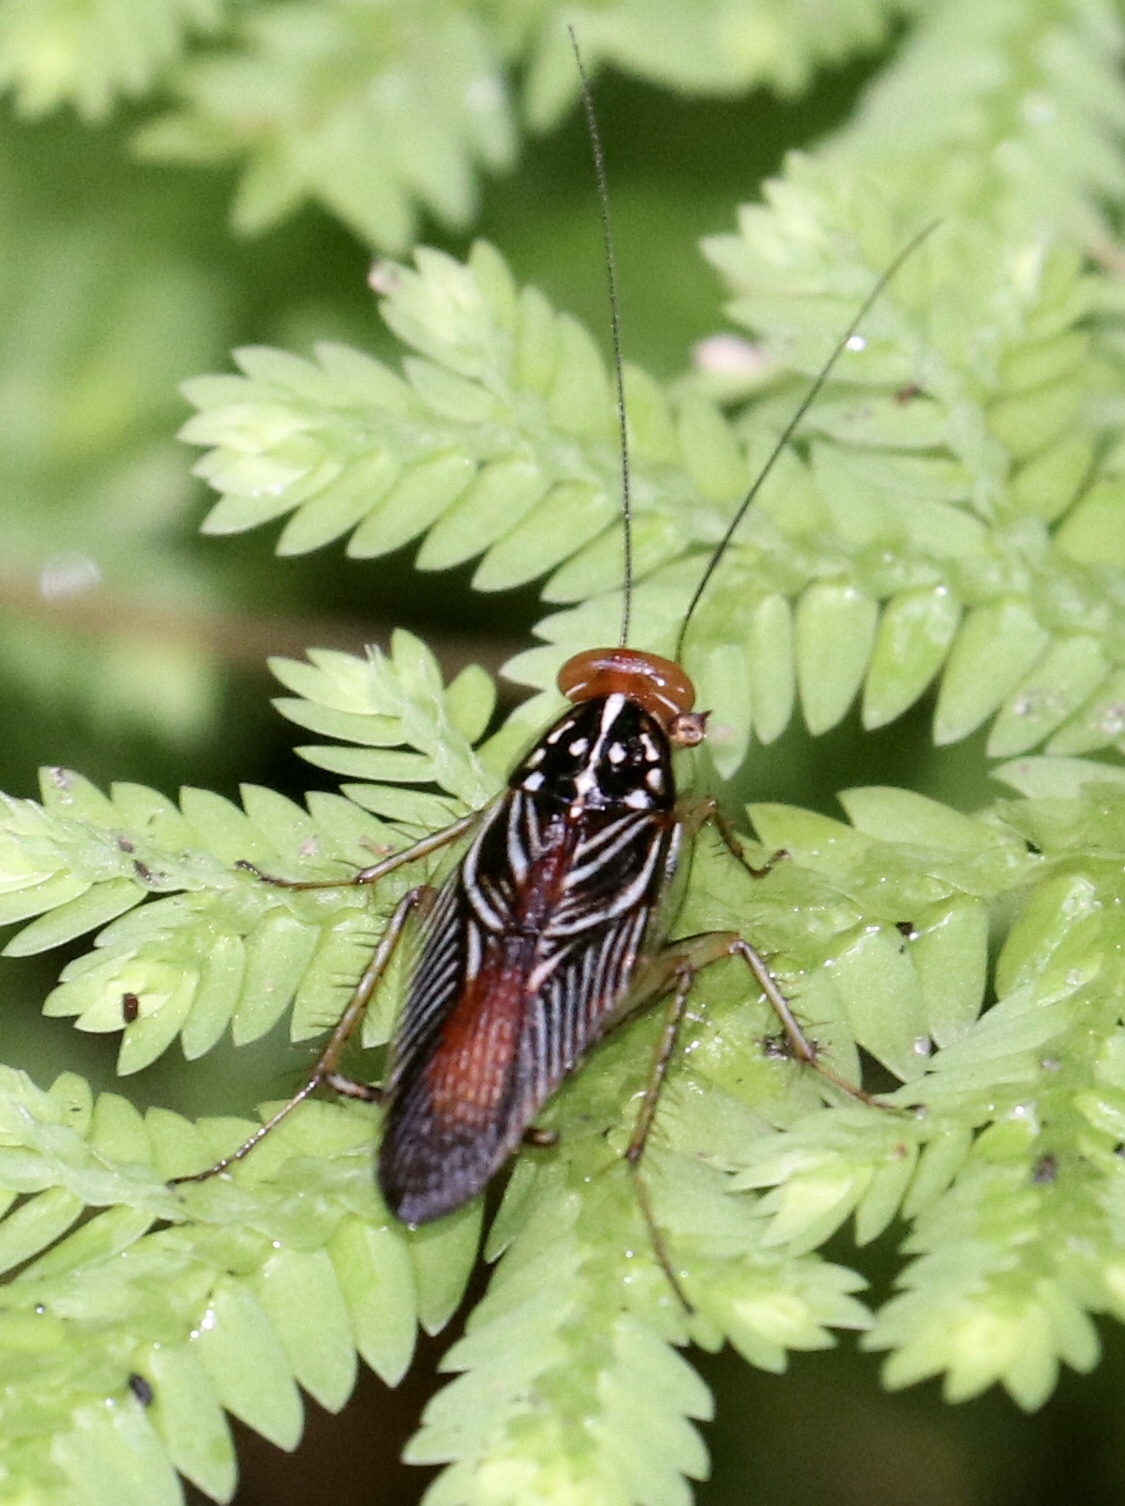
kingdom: Animalia
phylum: Arthropoda
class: Insecta
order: Blattodea
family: Ectobiidae
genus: Euphyllodromia
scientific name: Euphyllodromia angustata
